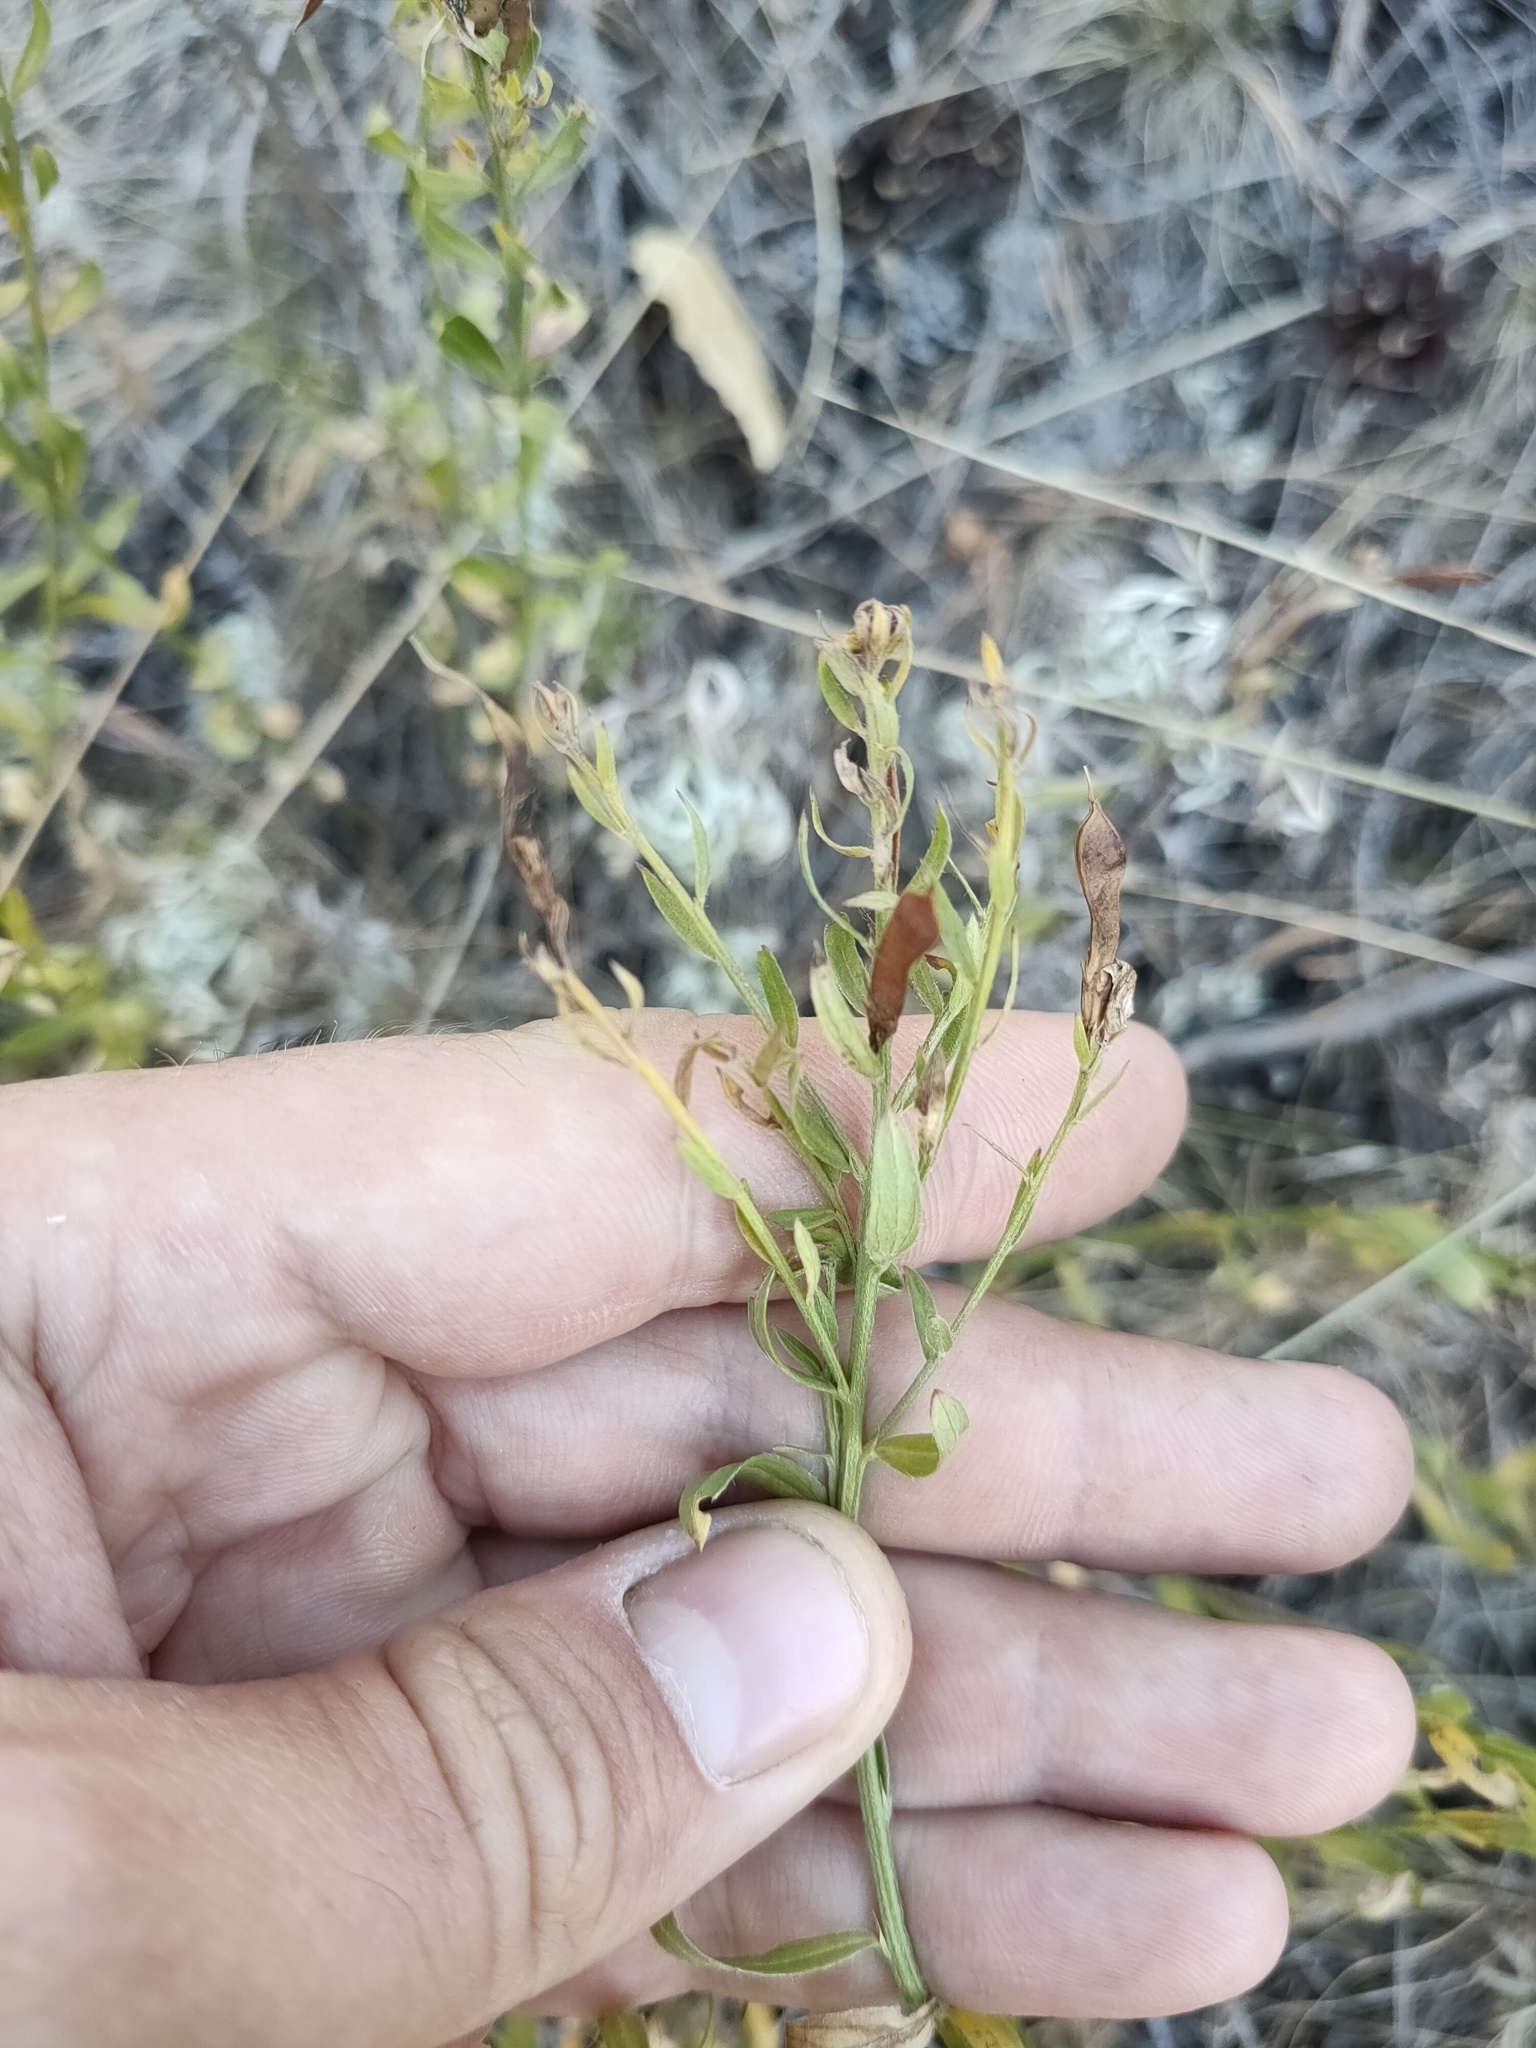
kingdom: Plantae
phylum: Tracheophyta
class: Magnoliopsida
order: Fabales
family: Fabaceae
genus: Genista
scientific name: Genista tinctoria
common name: Dyer's greenweed
